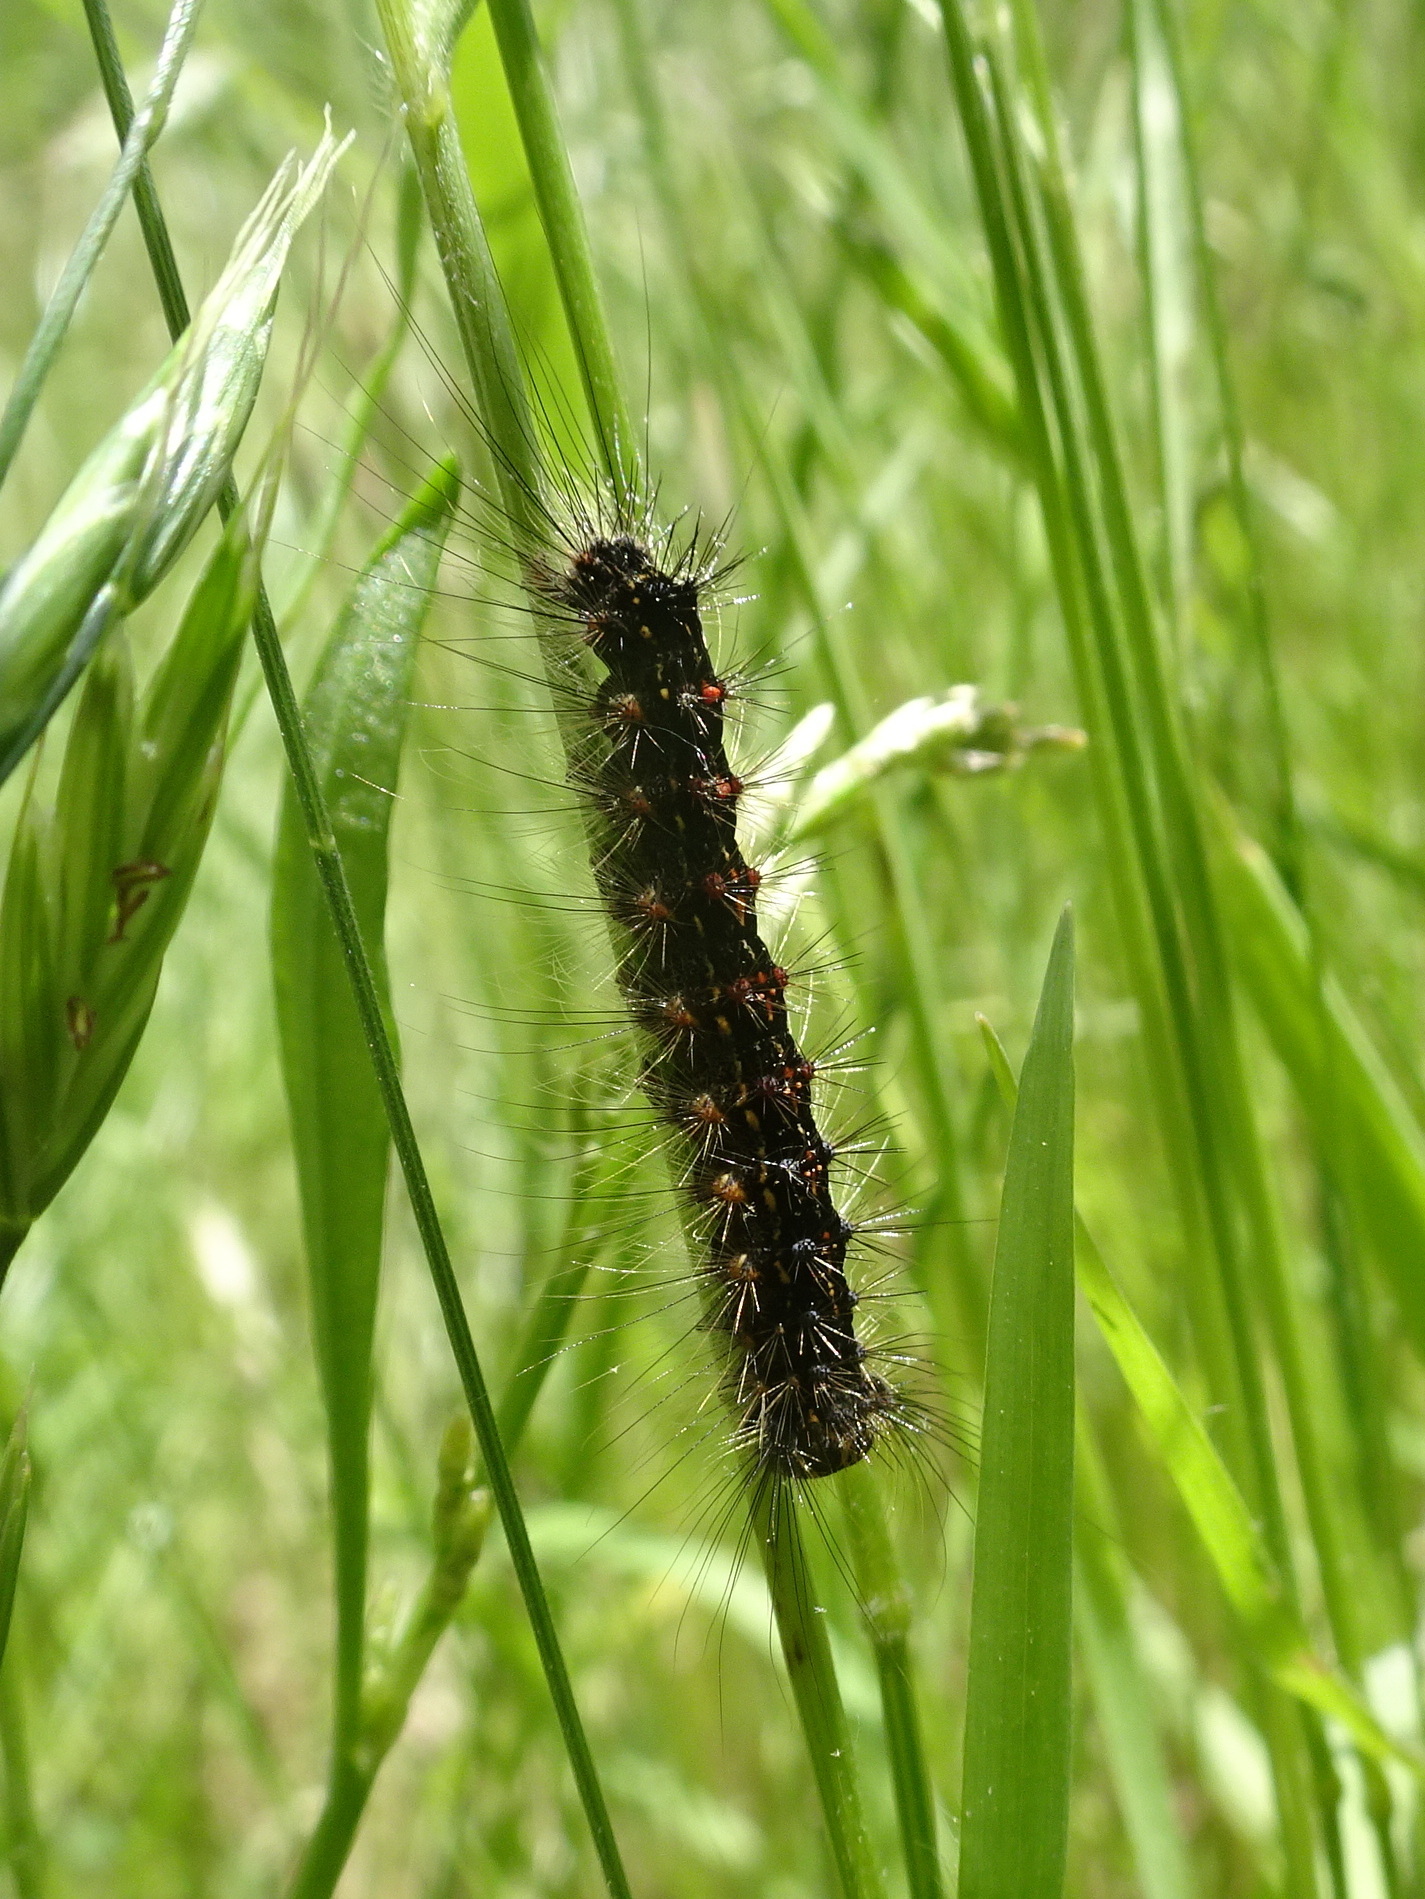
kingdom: Animalia
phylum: Arthropoda
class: Insecta
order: Lepidoptera
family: Erebidae
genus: Lymantria
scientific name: Lymantria dispar
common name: Gypsy moth
